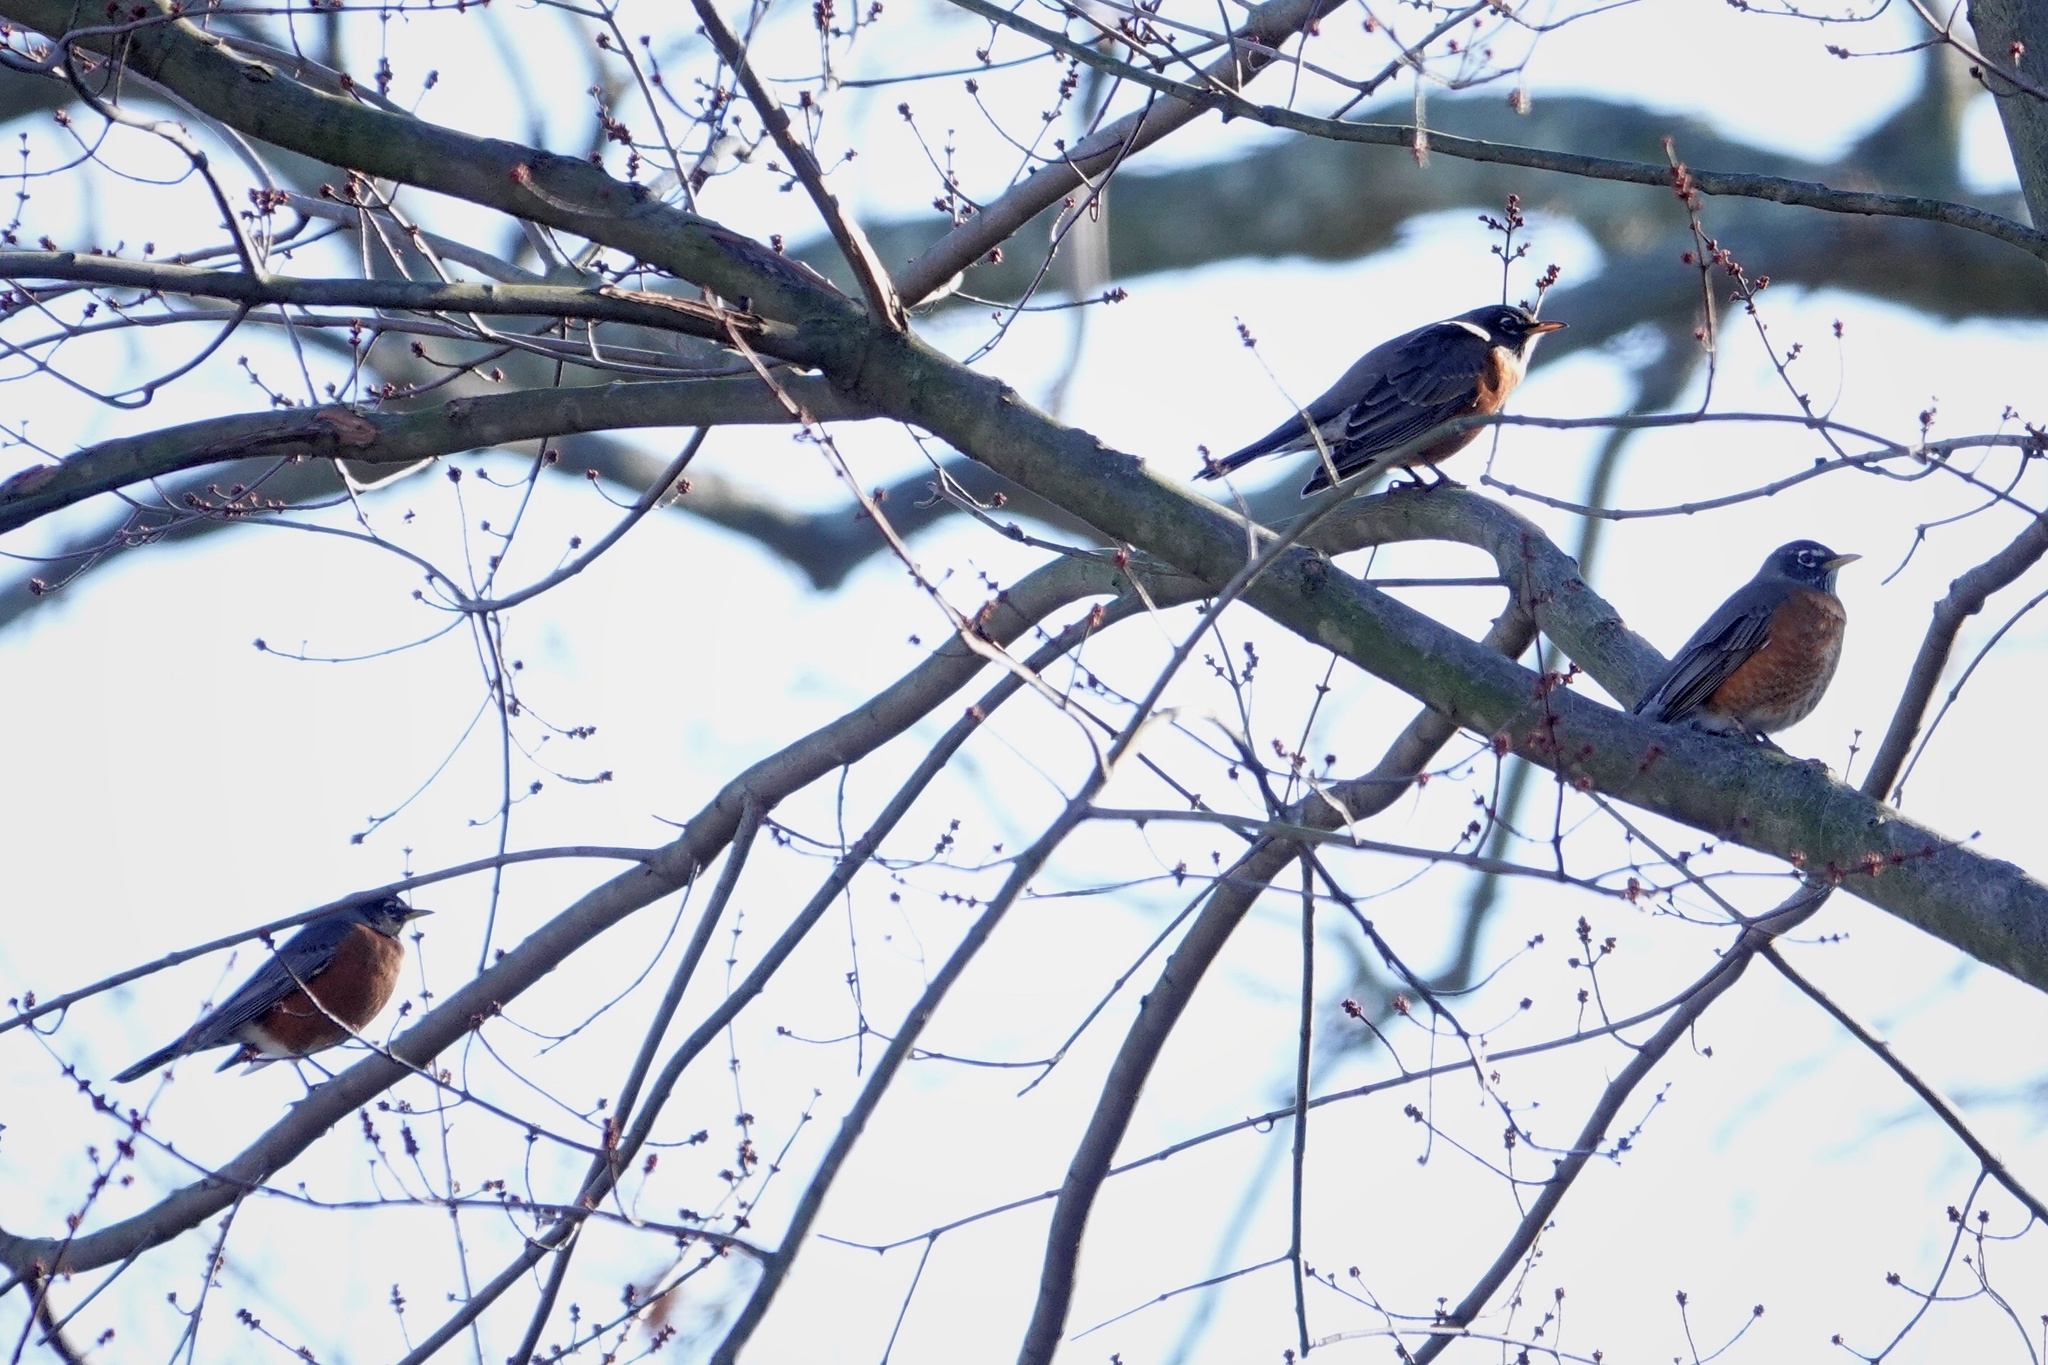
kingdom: Animalia
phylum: Chordata
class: Aves
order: Passeriformes
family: Turdidae
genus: Turdus
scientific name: Turdus migratorius
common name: American robin
